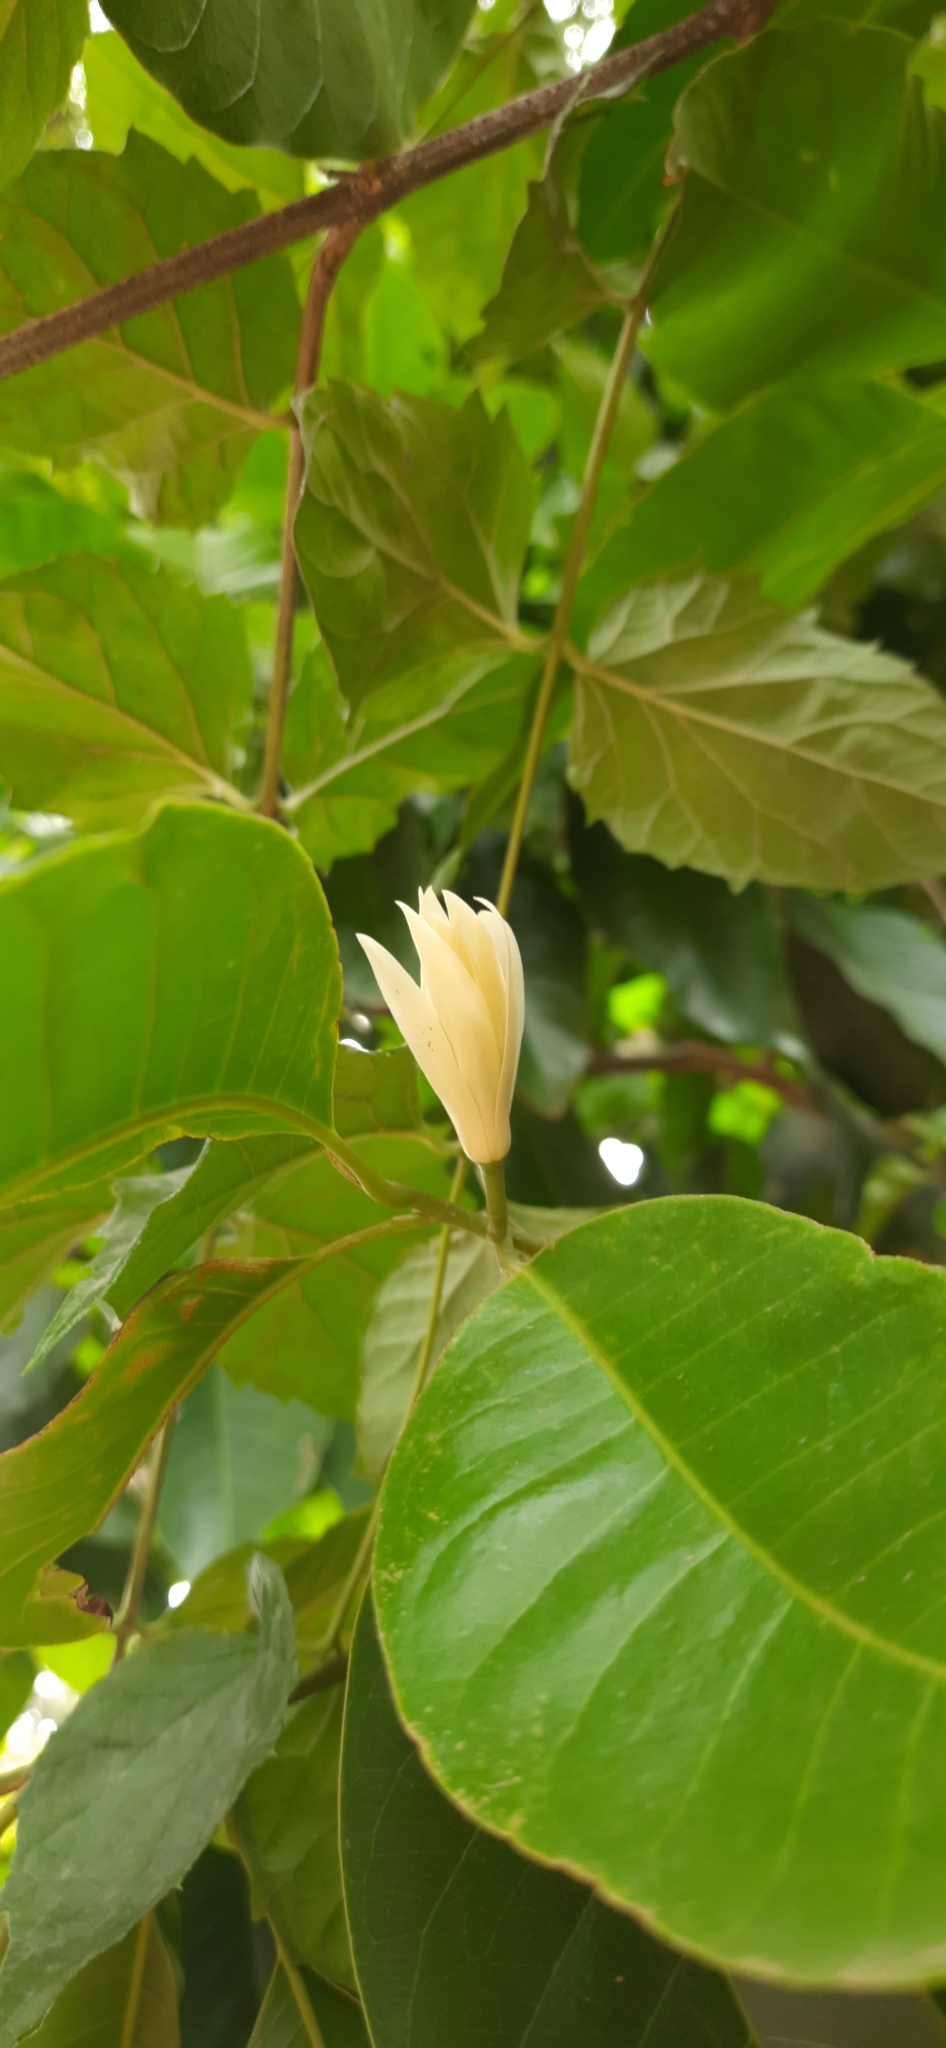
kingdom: Plantae
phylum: Tracheophyta
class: Magnoliopsida
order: Magnoliales
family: Magnoliaceae
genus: Magnolia
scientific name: Magnolia alba
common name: White champaca
